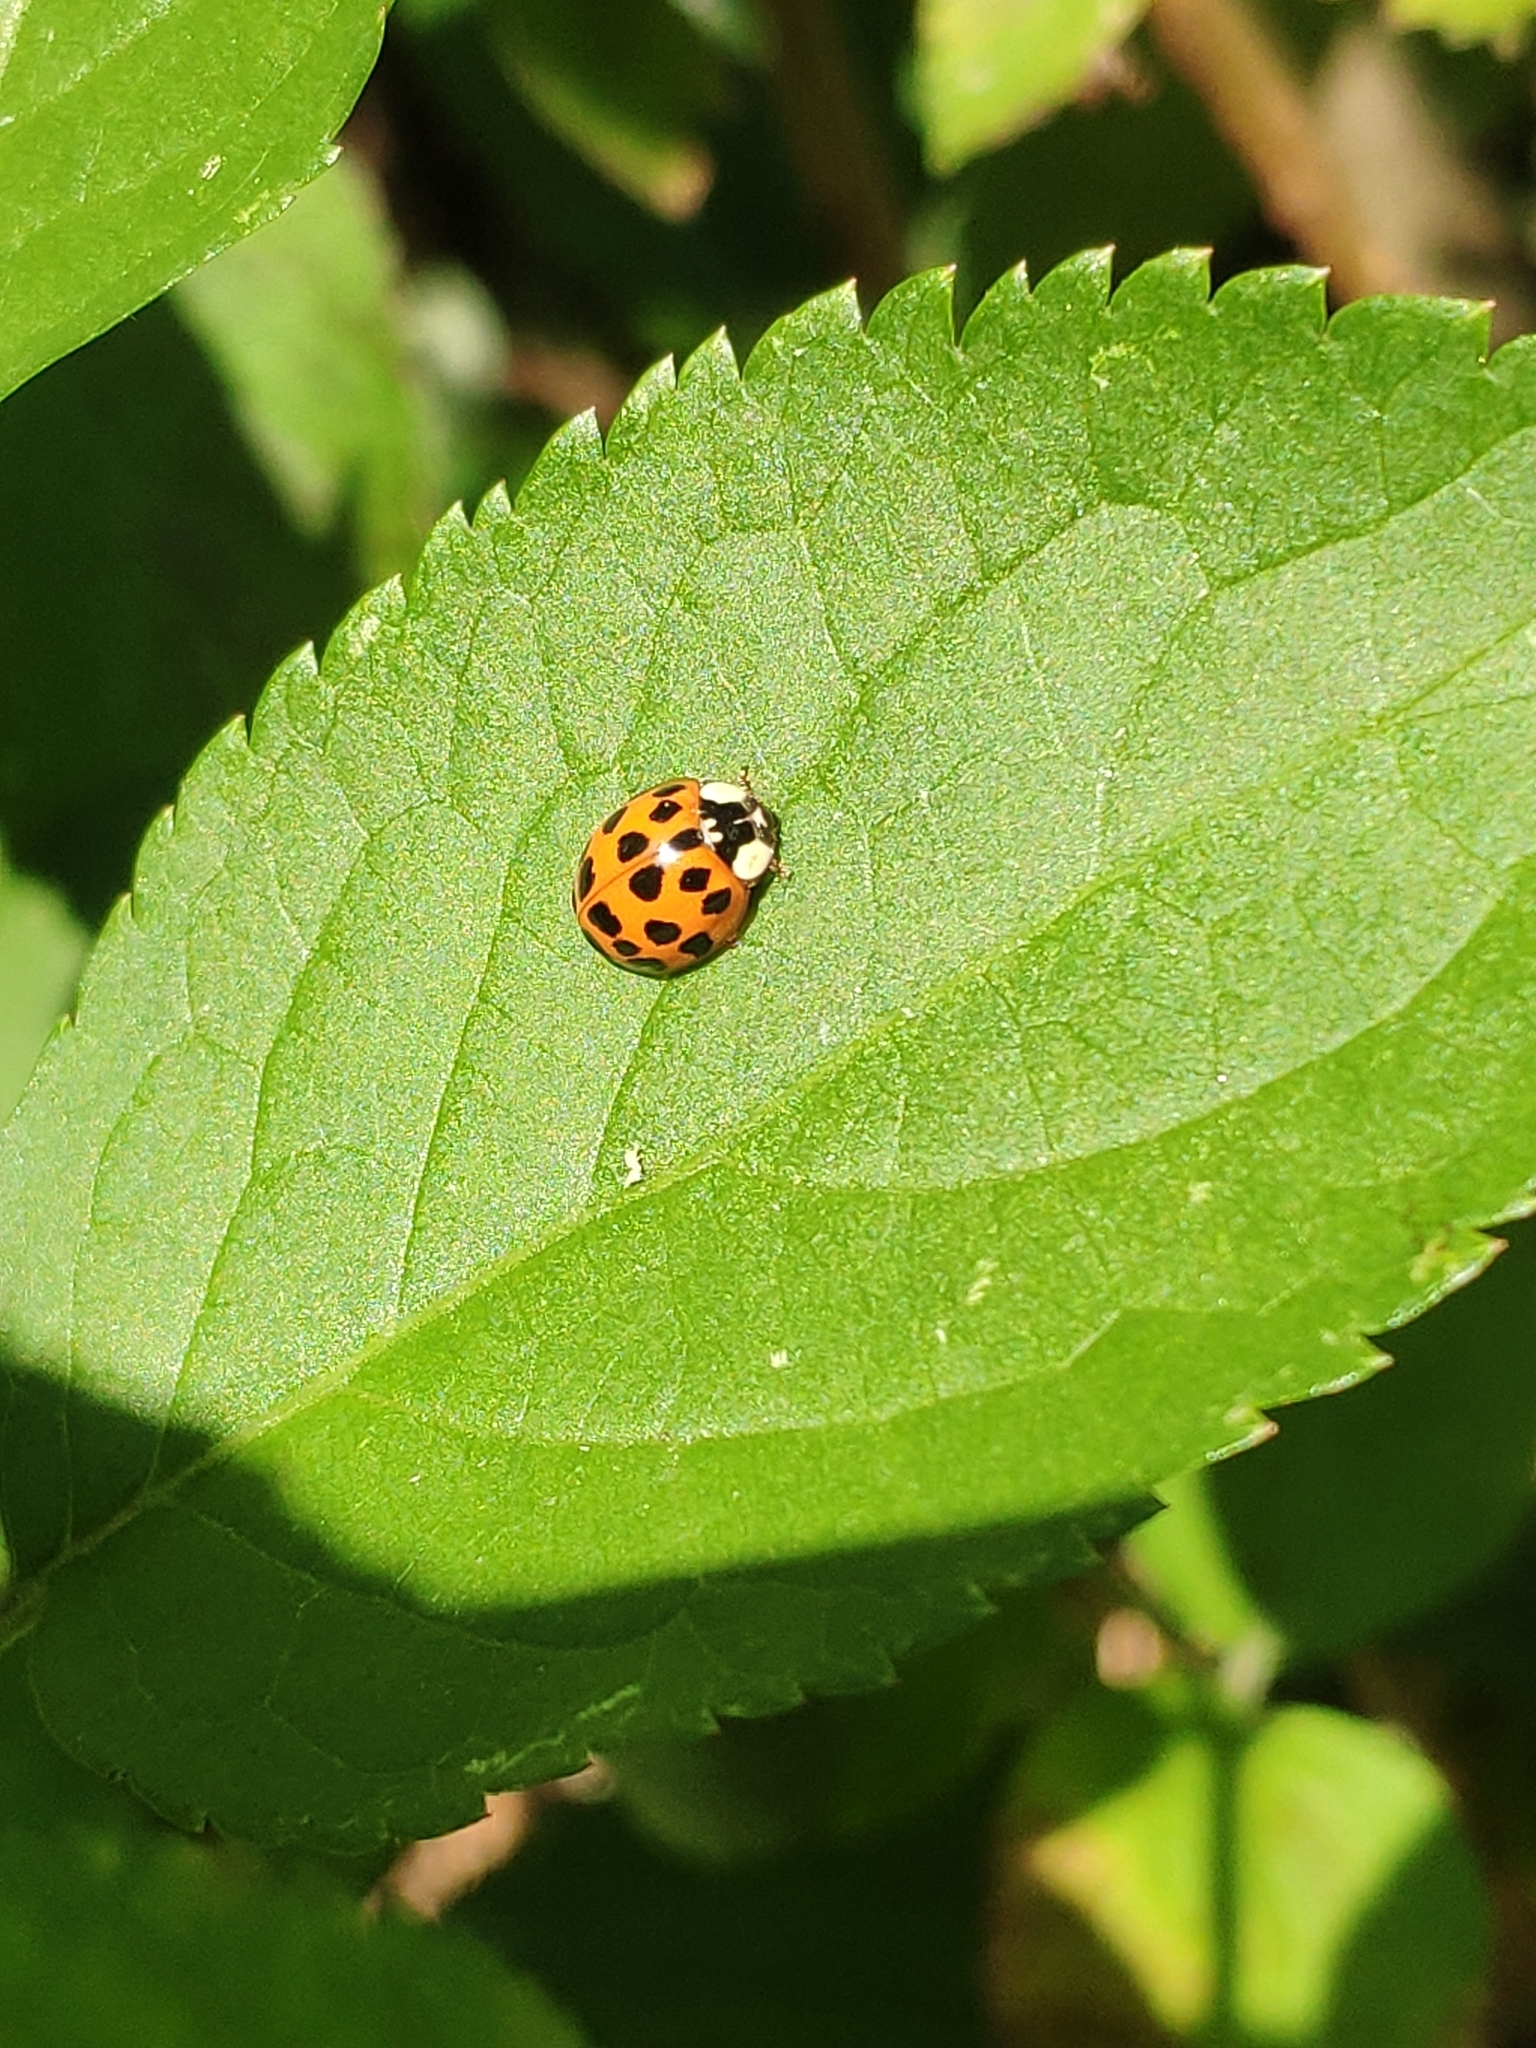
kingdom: Animalia
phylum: Arthropoda
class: Insecta
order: Coleoptera
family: Coccinellidae
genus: Harmonia
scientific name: Harmonia axyridis
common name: Harlequin ladybird
